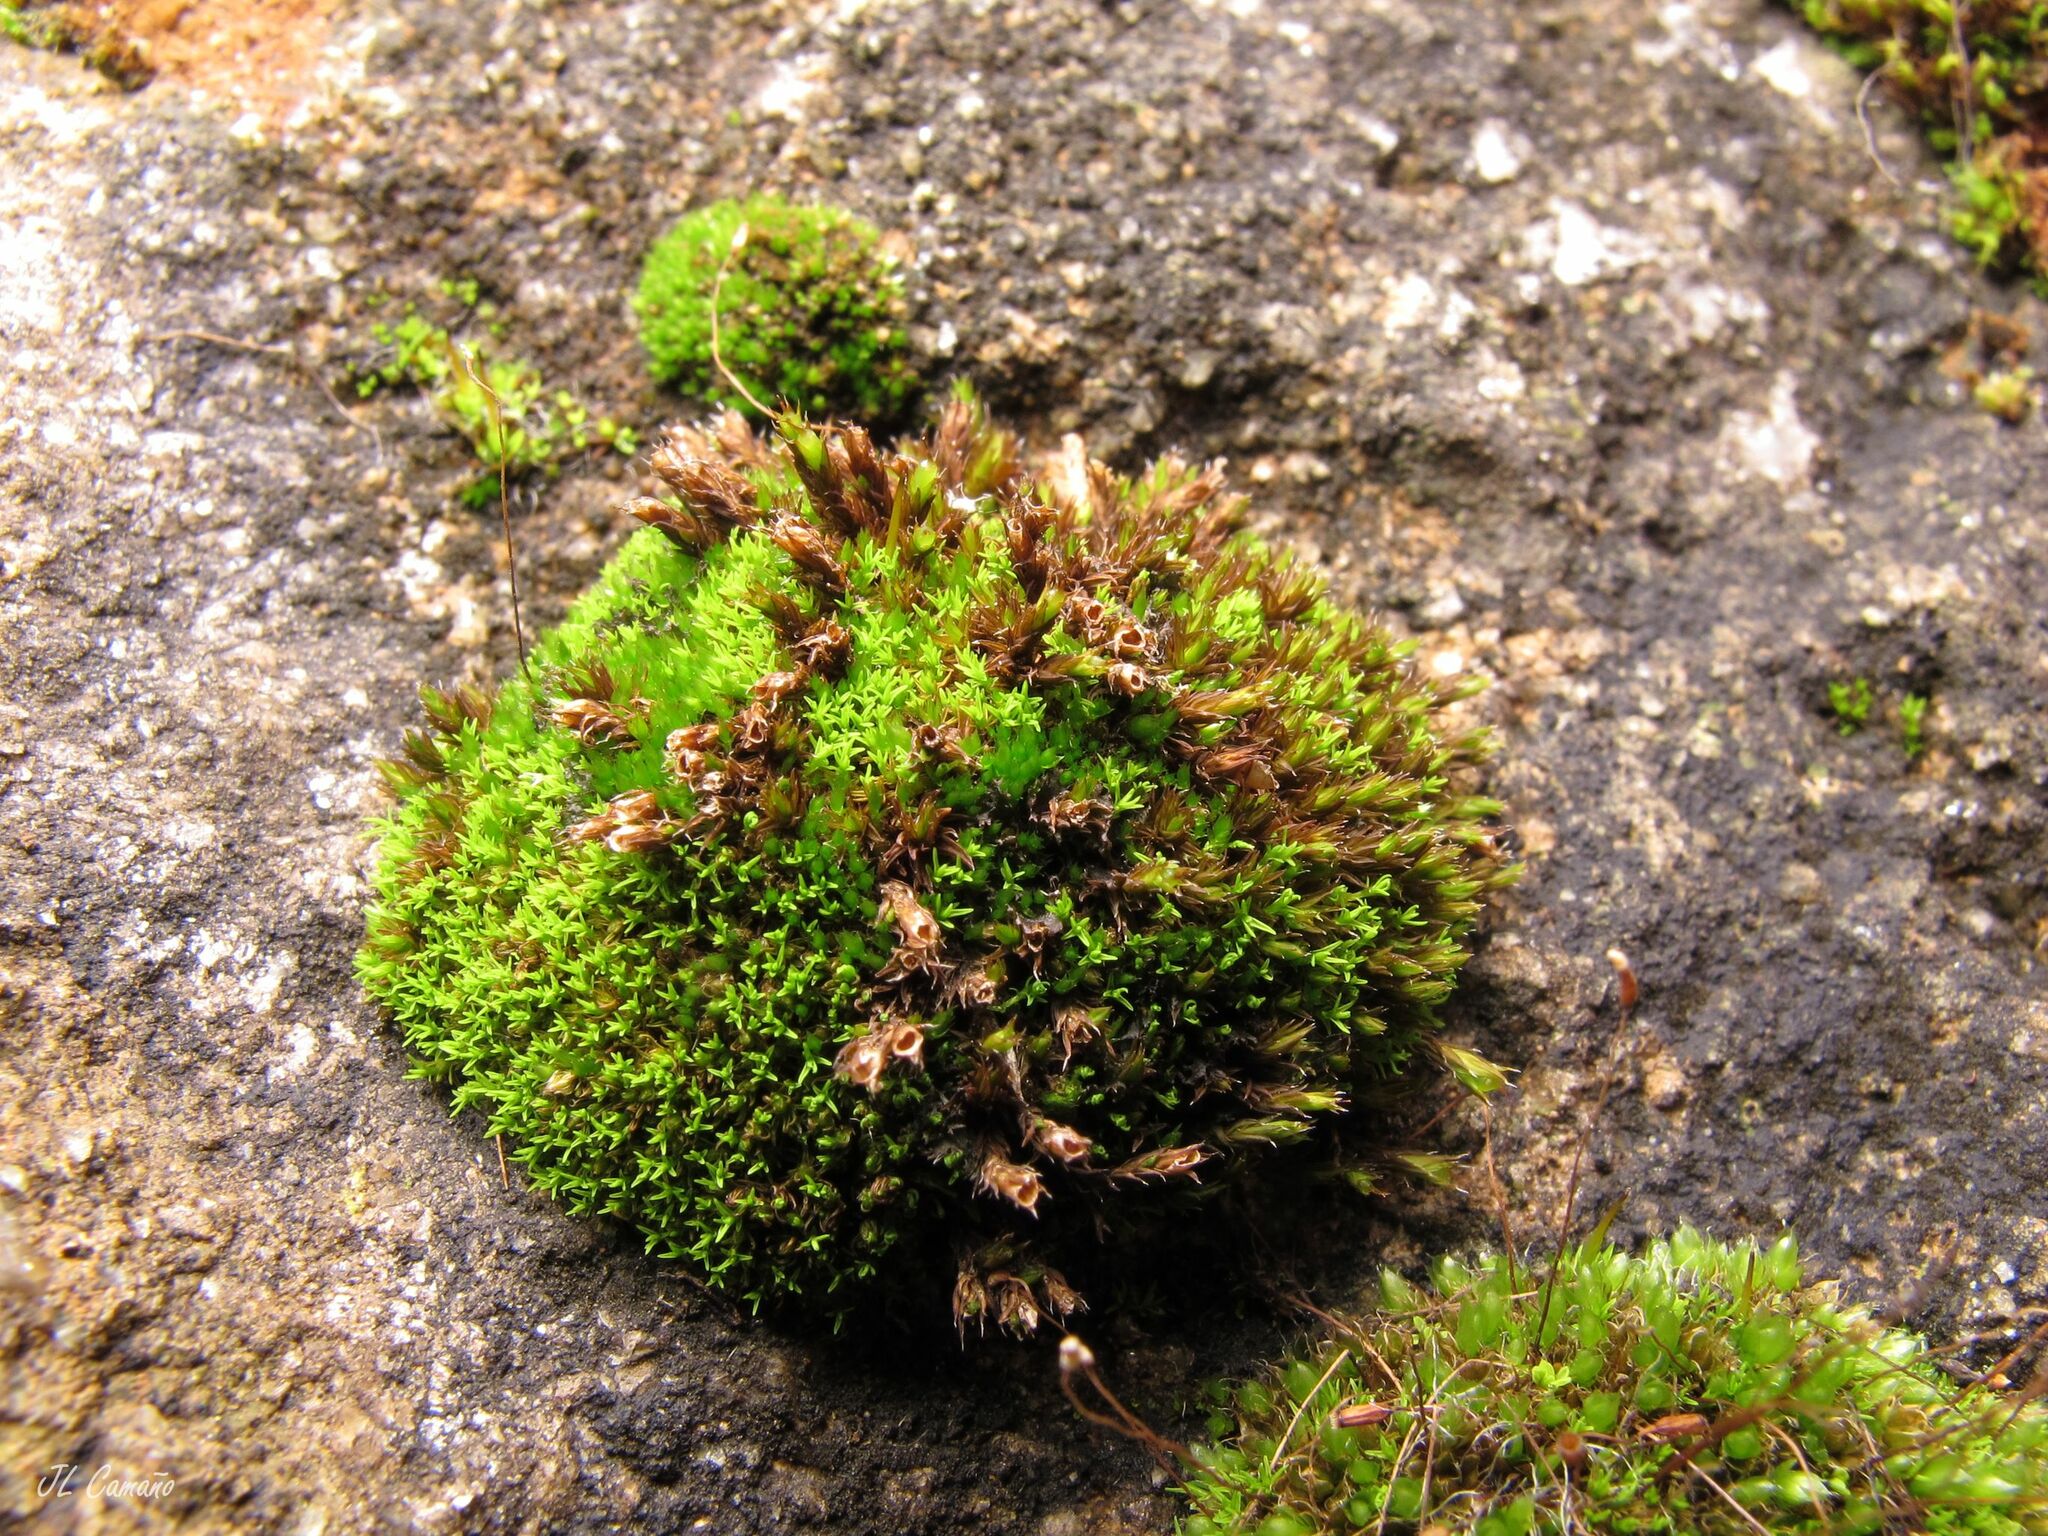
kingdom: Plantae
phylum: Bryophyta
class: Bryopsida
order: Pottiales
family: Pottiaceae
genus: Pseudocrossidium
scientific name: Pseudocrossidium revolutum
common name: Revolute beard-moss
